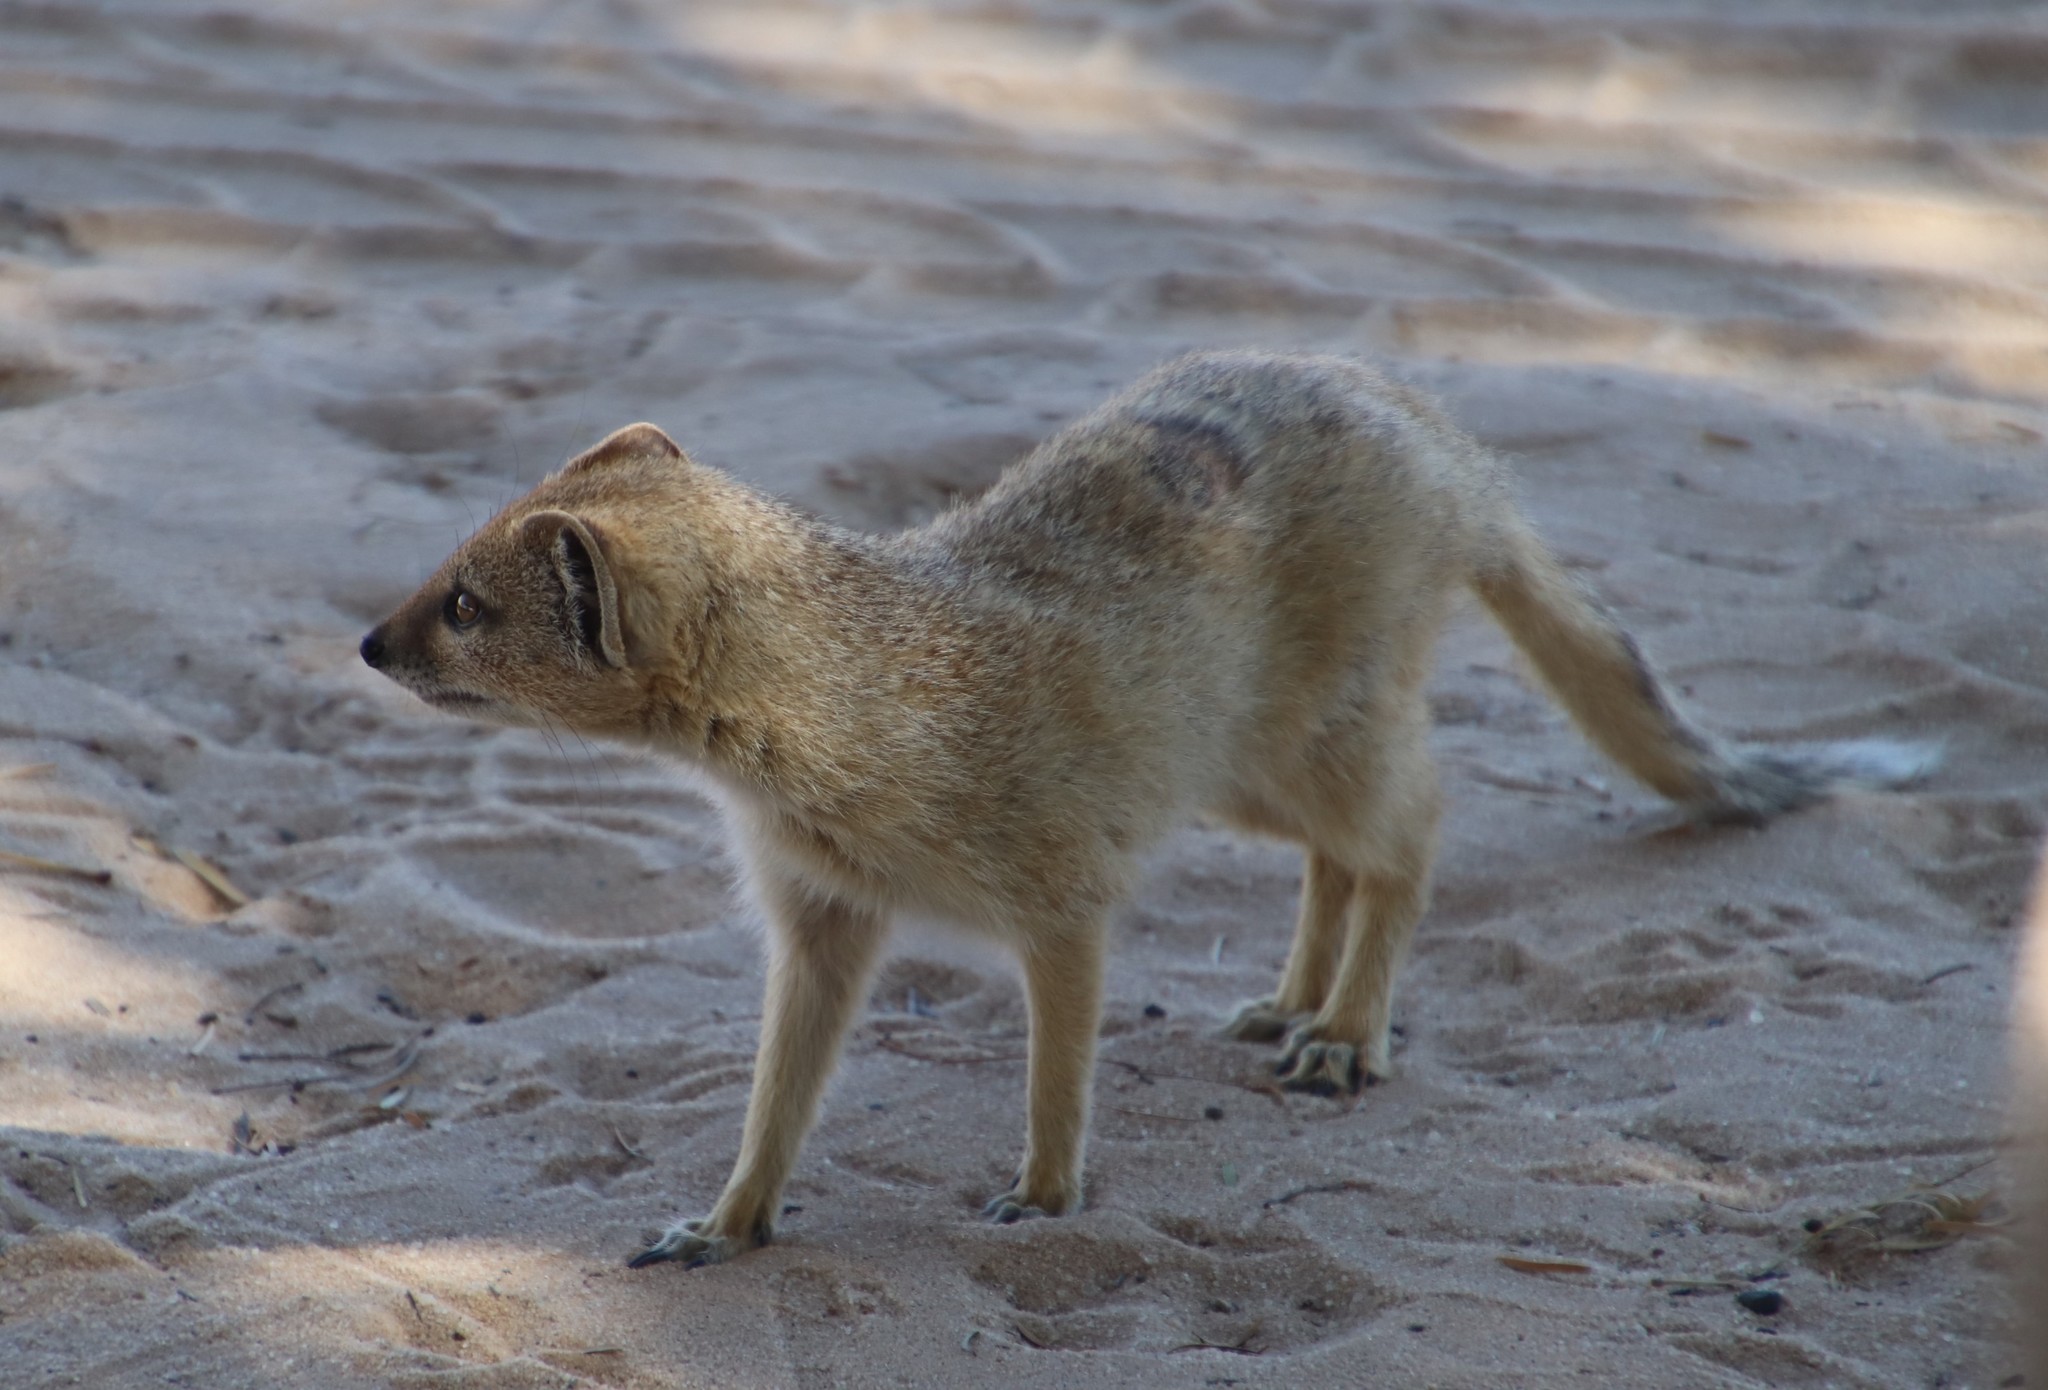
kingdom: Animalia
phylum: Chordata
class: Mammalia
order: Carnivora
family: Herpestidae
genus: Cynictis
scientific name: Cynictis penicillata
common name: Yellow mongoose
